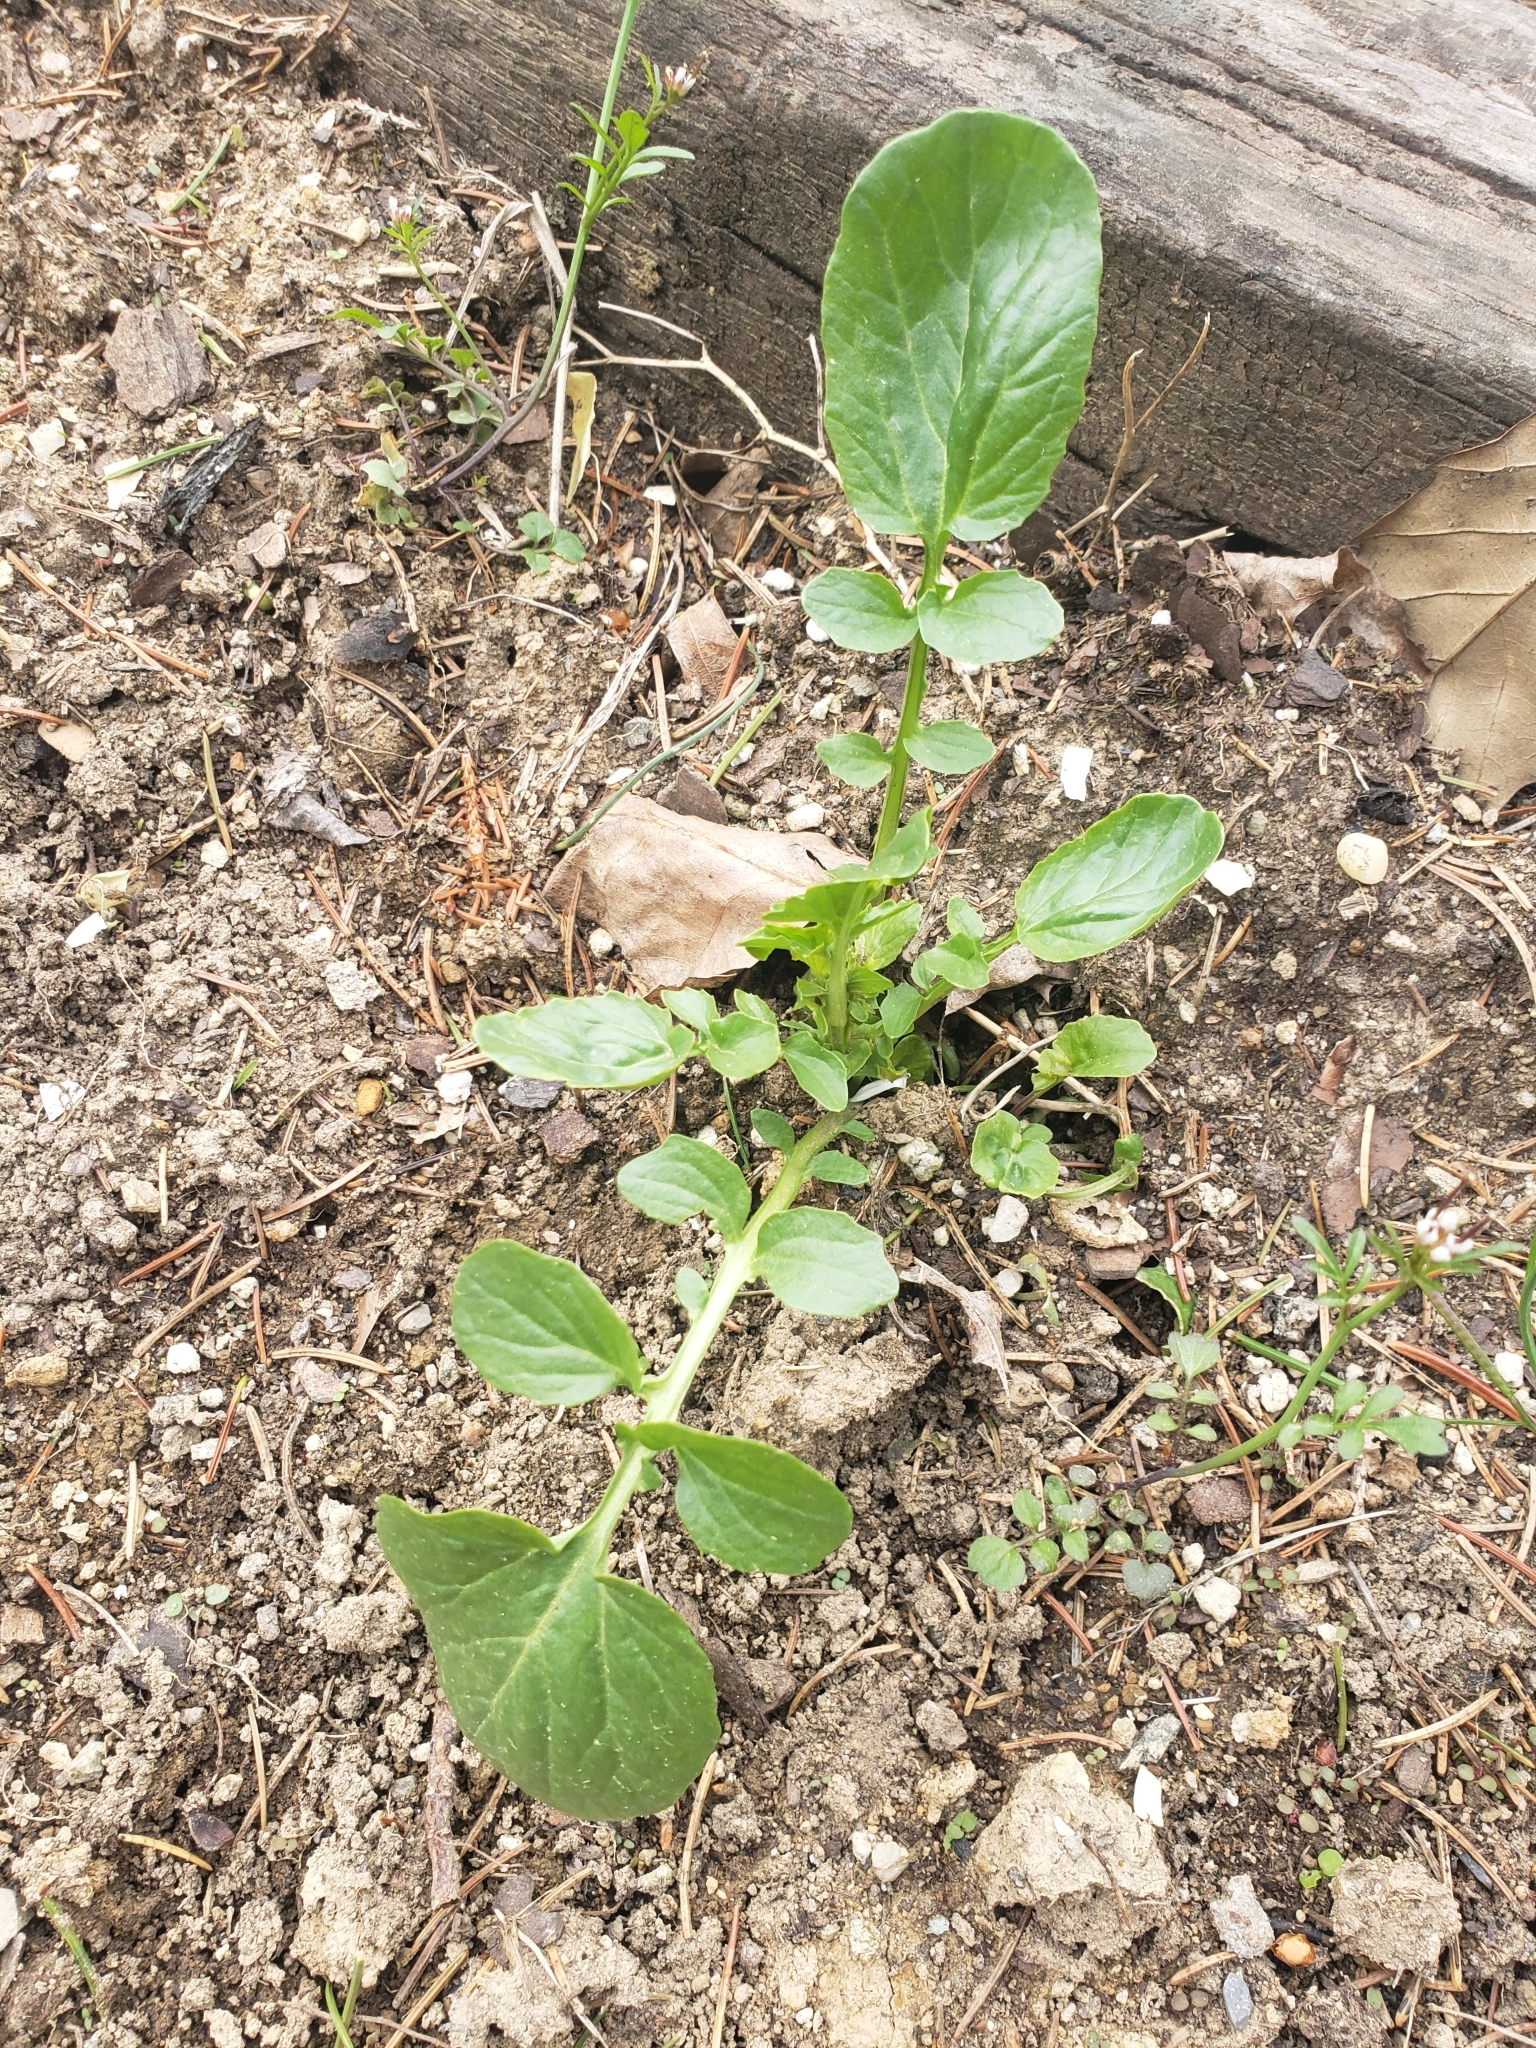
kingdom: Plantae
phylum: Tracheophyta
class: Magnoliopsida
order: Brassicales
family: Brassicaceae
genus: Barbarea
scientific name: Barbarea vulgaris
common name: Cressy-greens
